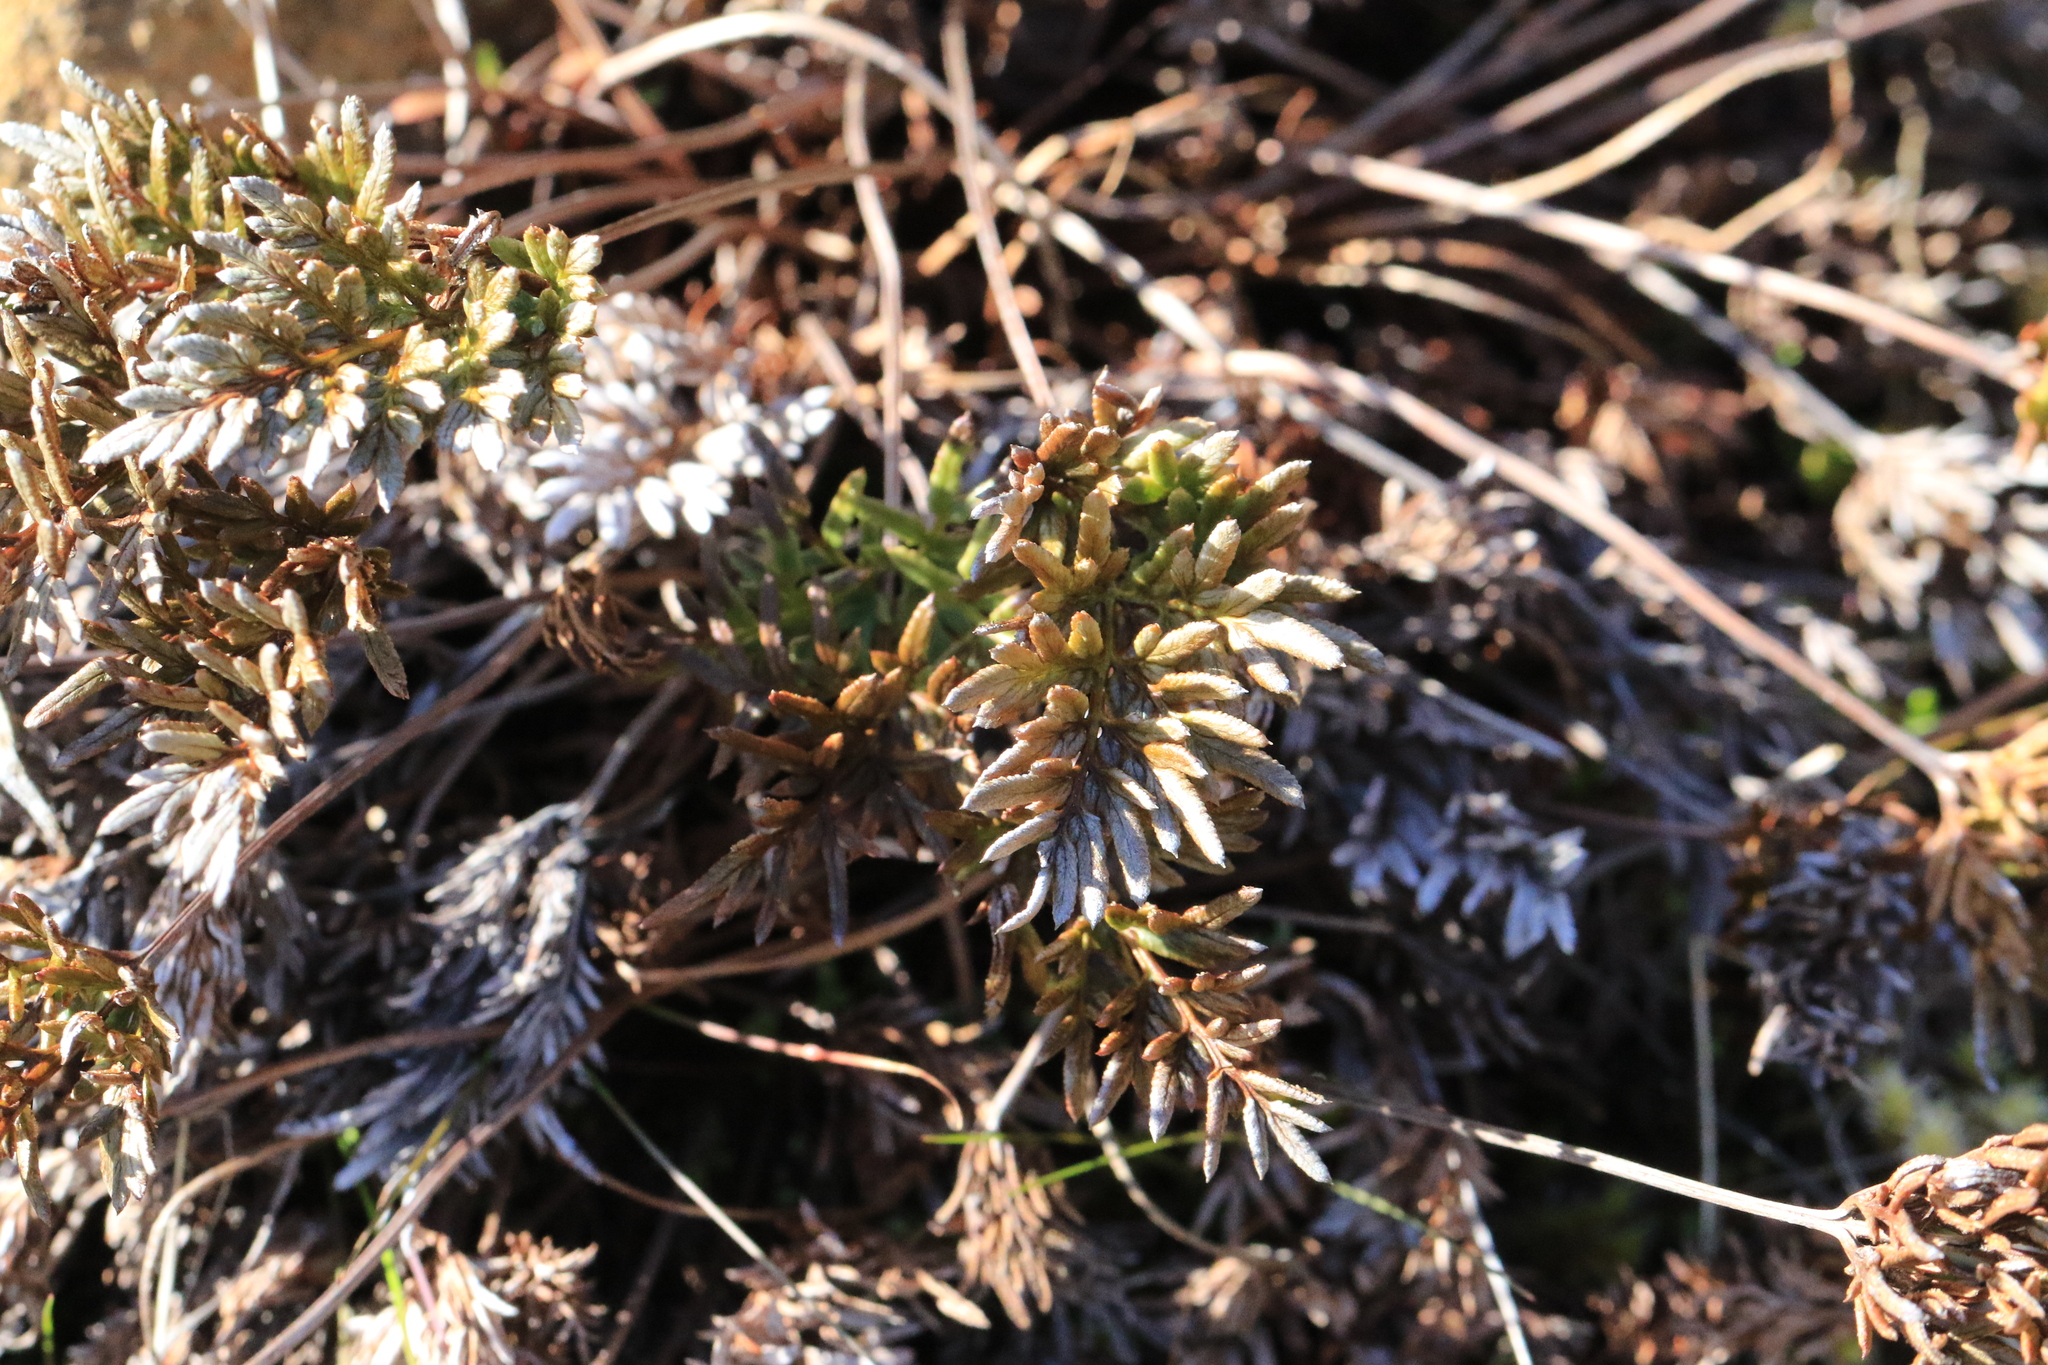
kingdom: Plantae
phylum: Tracheophyta
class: Polypodiopsida
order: Polypodiales
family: Pteridaceae
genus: Aspidotis
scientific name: Aspidotis densa
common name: Indian's dream
